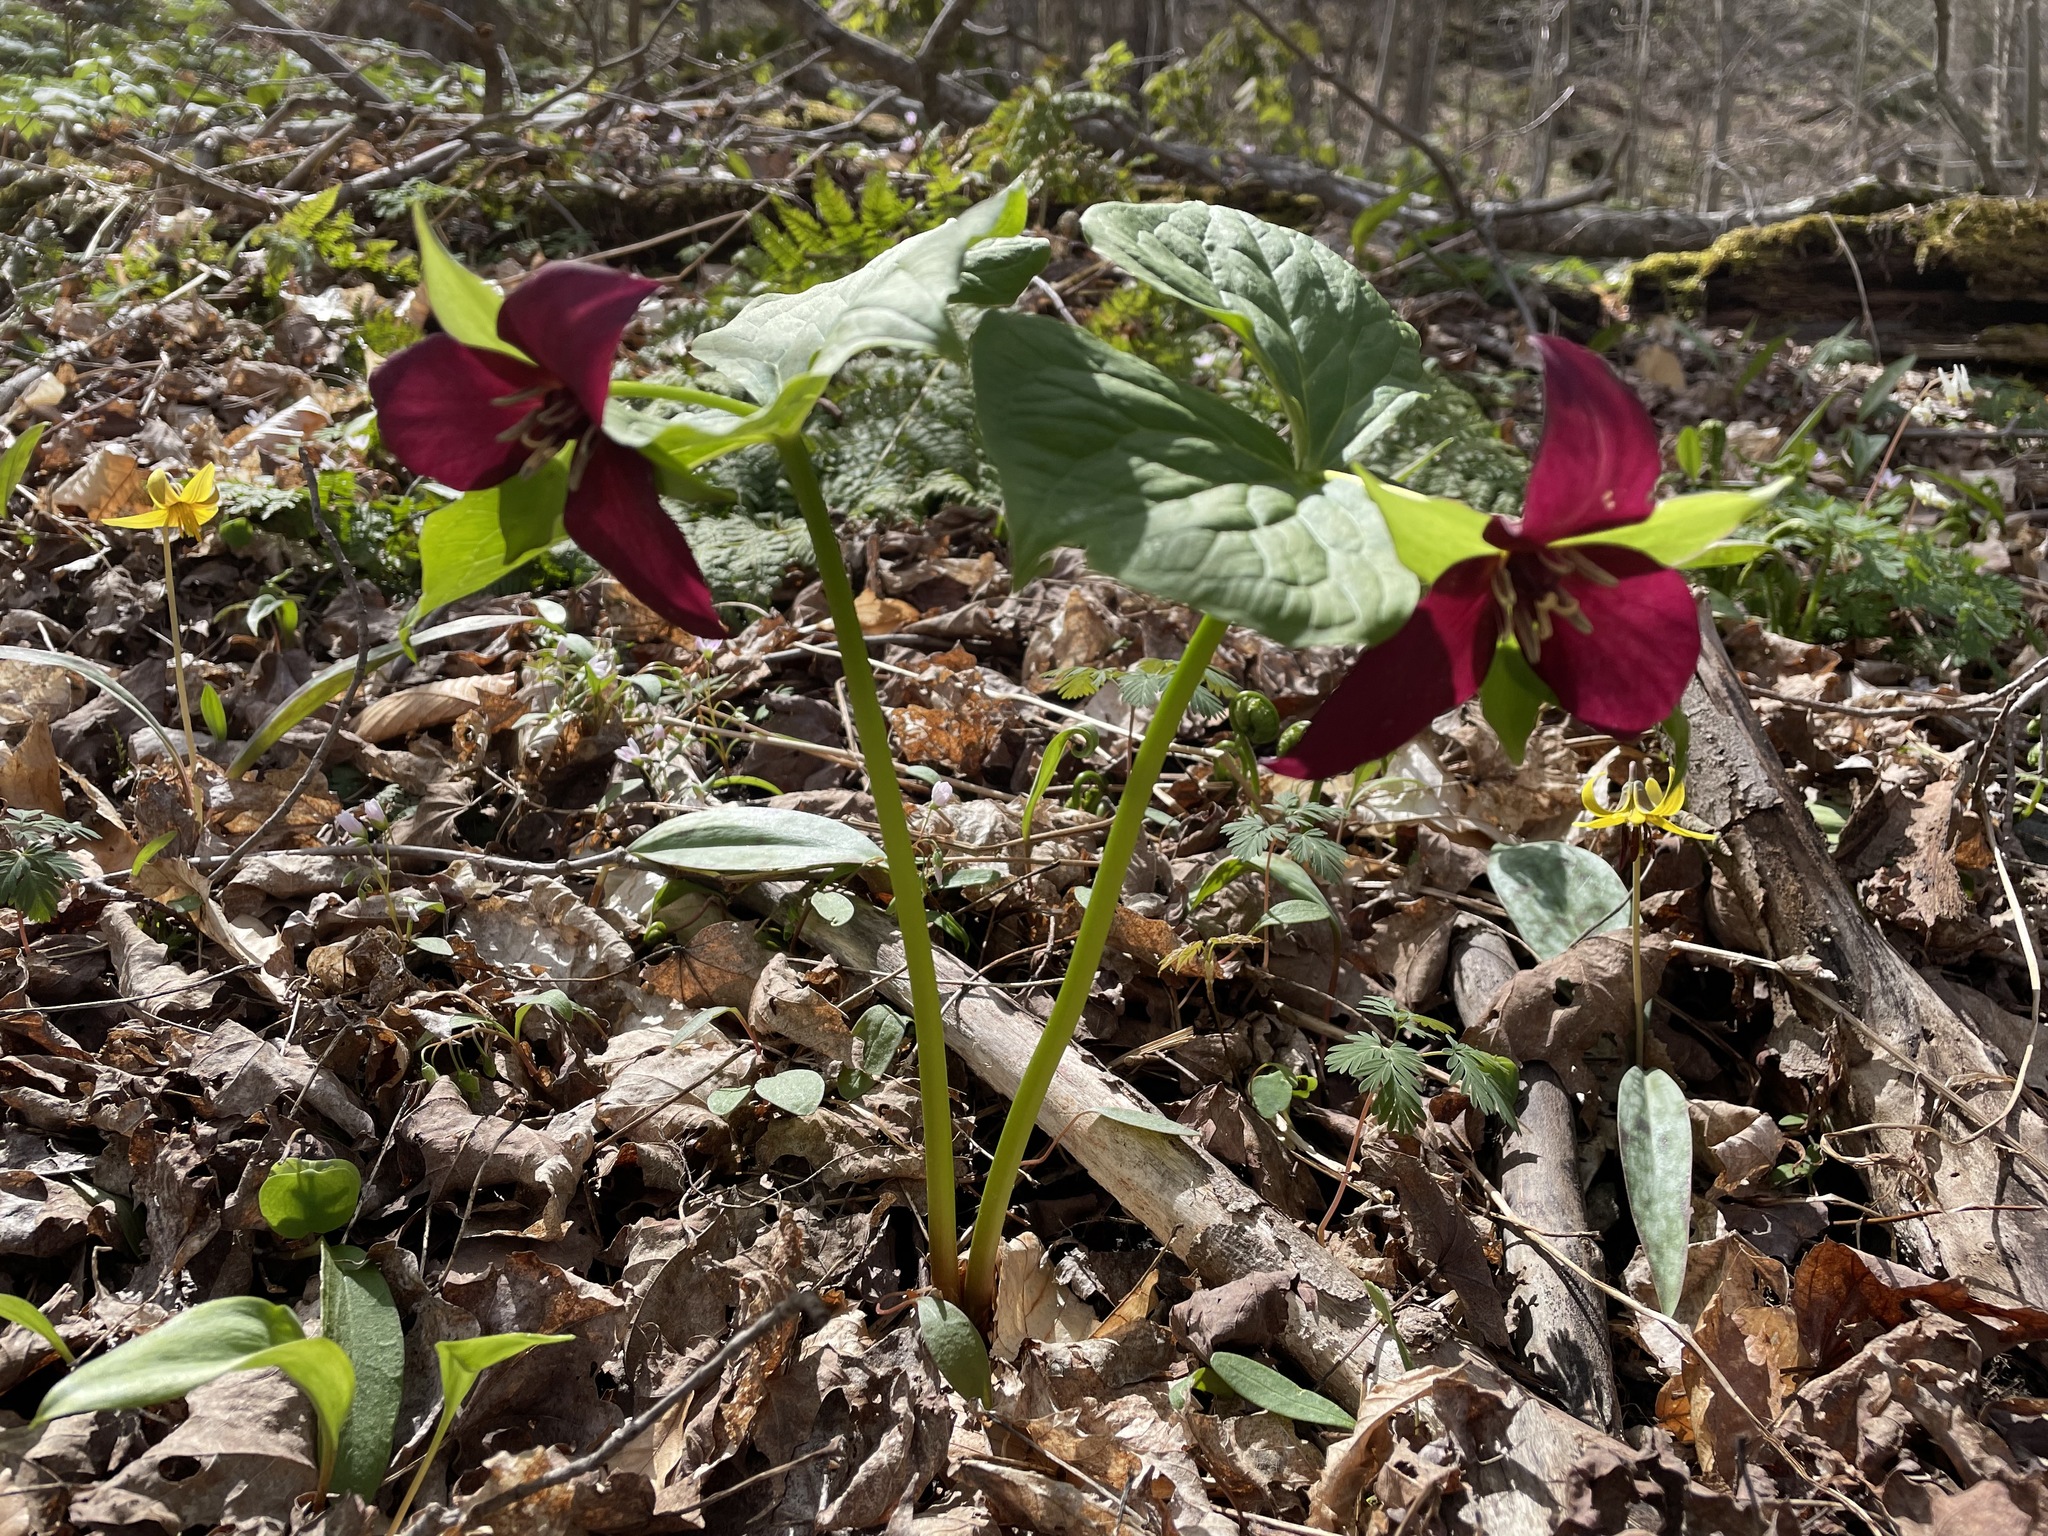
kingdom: Plantae
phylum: Tracheophyta
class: Liliopsida
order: Liliales
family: Melanthiaceae
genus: Trillium
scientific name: Trillium erectum
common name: Purple trillium
